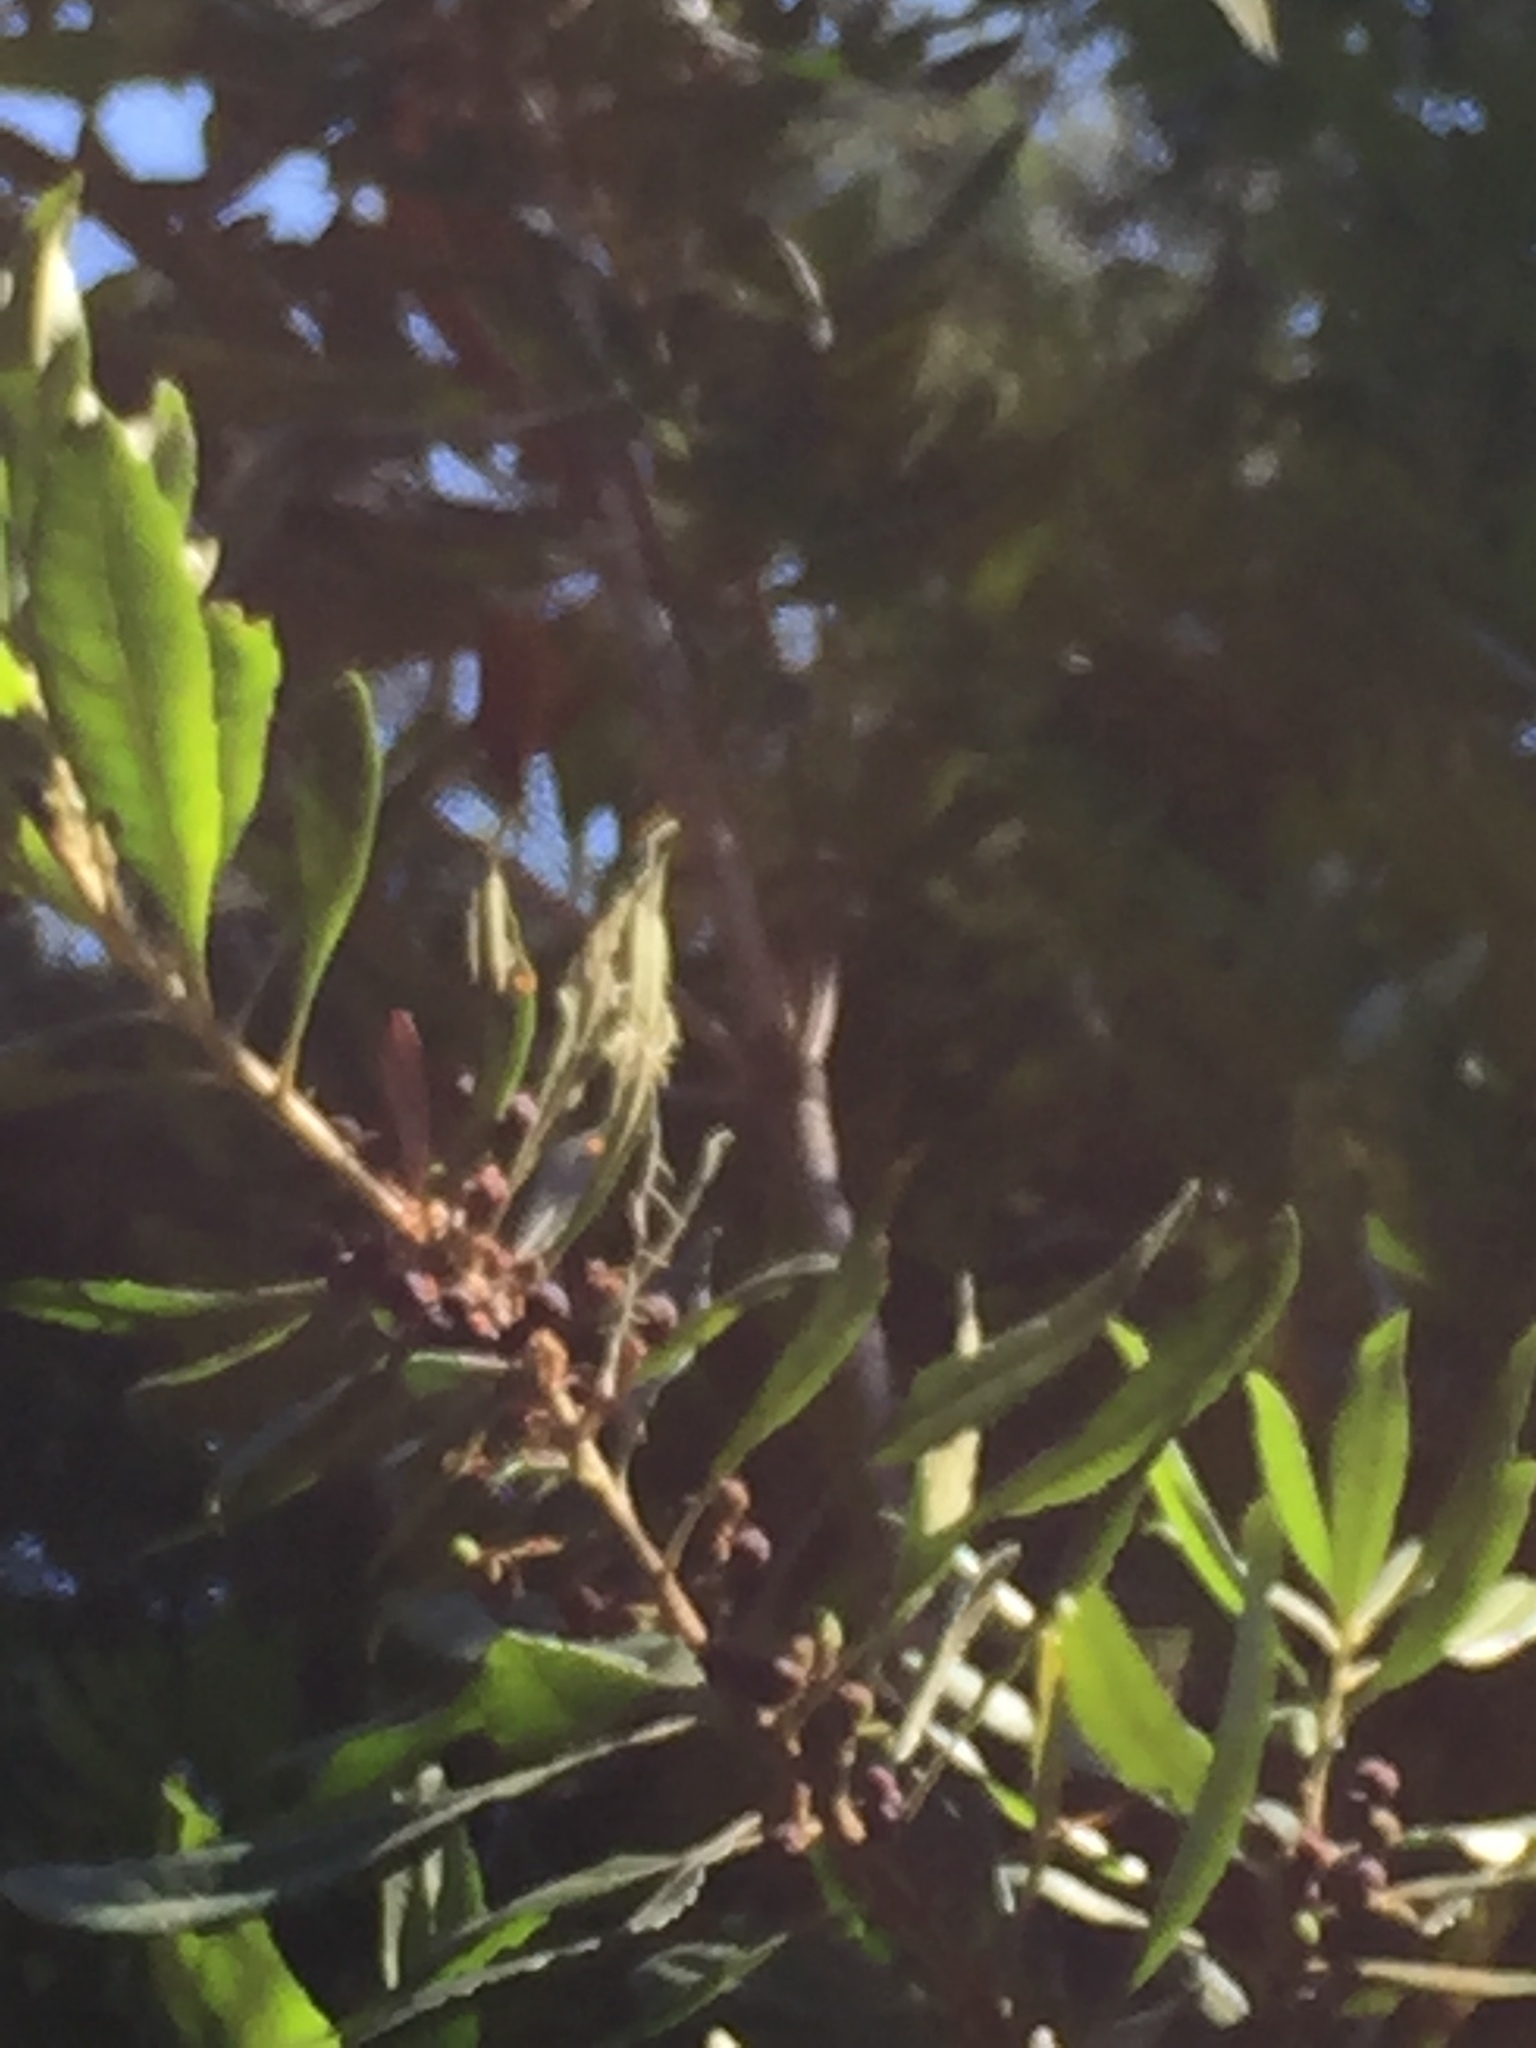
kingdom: Plantae
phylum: Tracheophyta
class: Magnoliopsida
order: Fagales
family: Myricaceae
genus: Morella
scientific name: Morella californica
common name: California wax-myrtle
